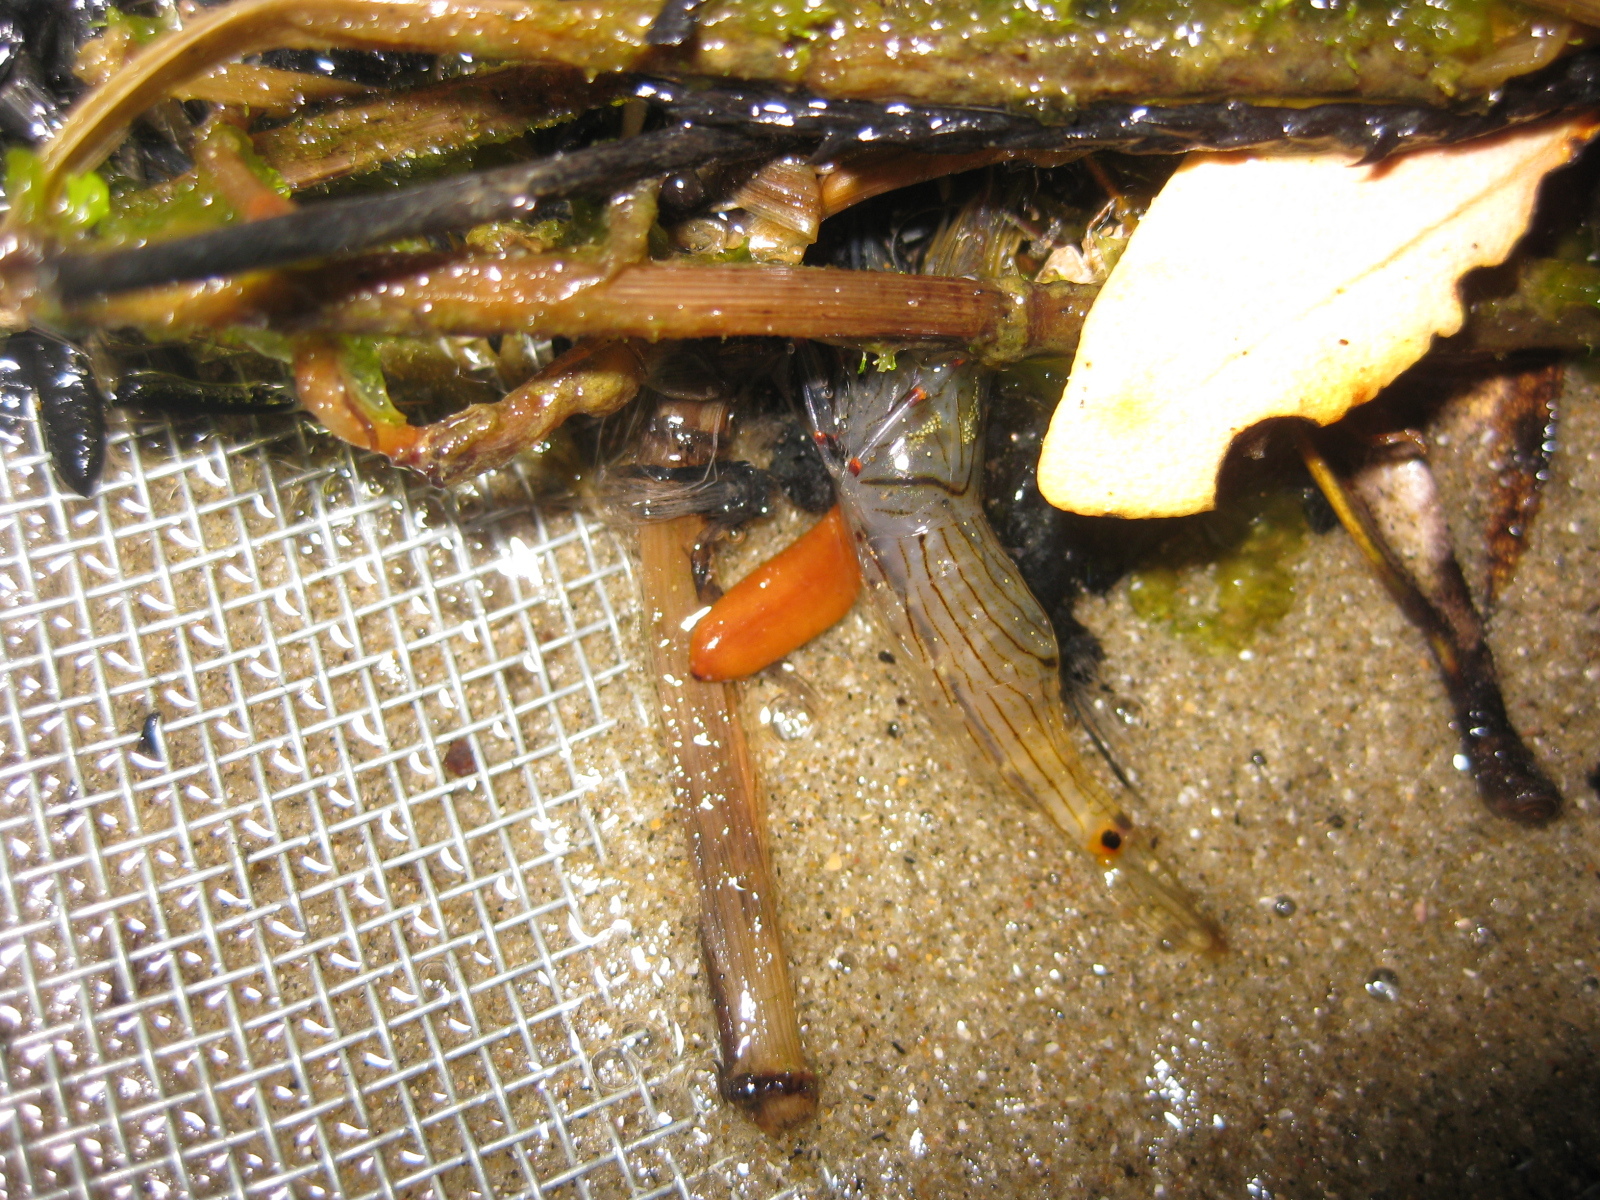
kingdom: Animalia
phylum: Arthropoda
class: Malacostraca
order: Decapoda
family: Palaemonidae
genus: Palaemon
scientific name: Palaemon affinis
